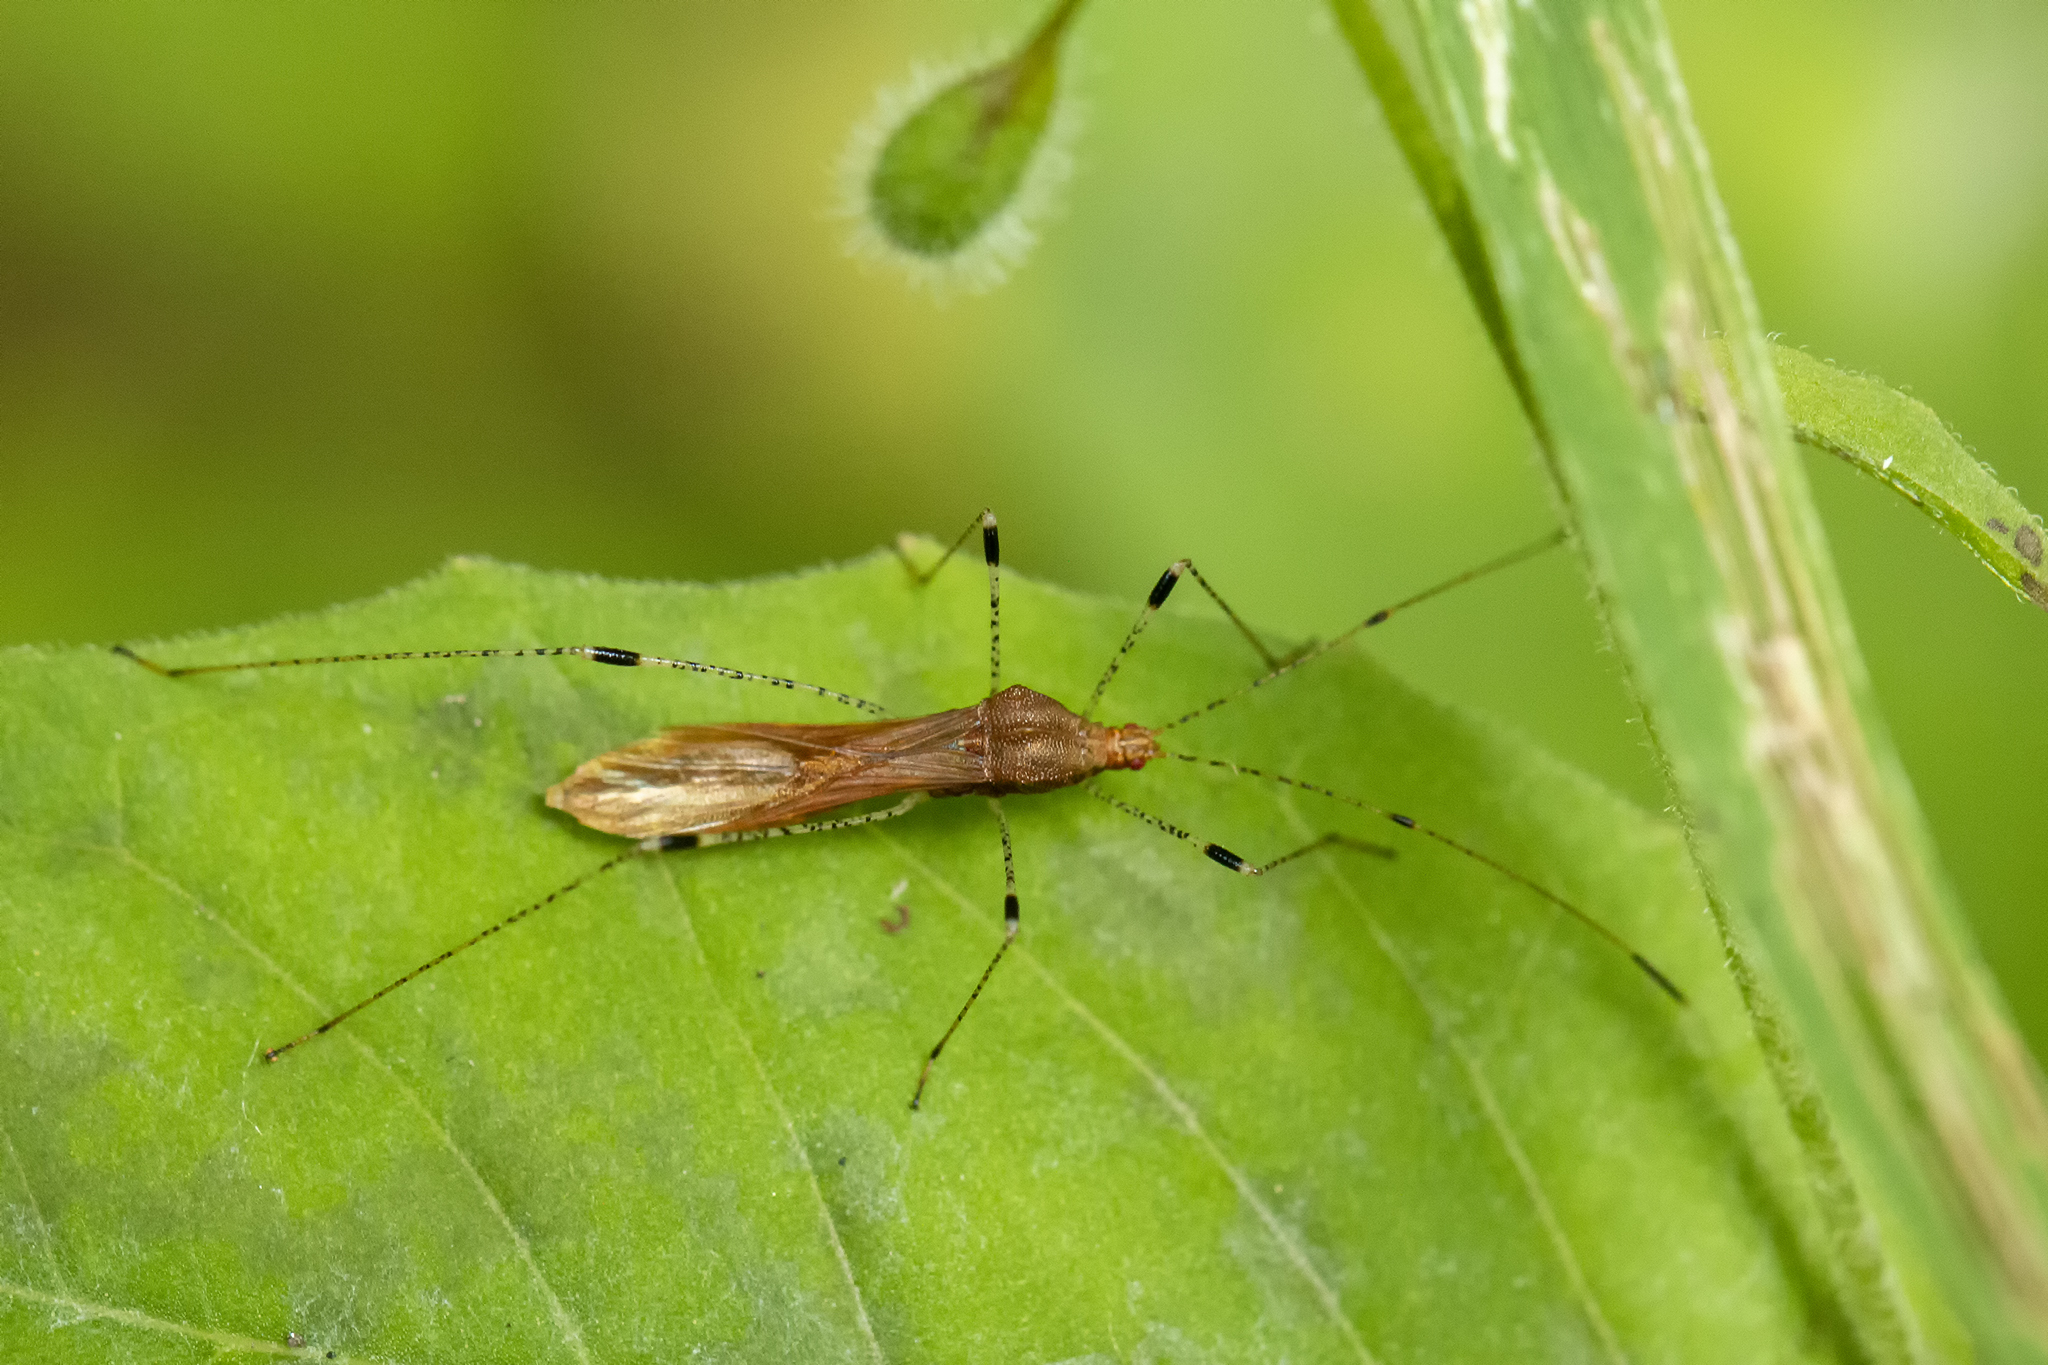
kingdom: Animalia
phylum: Arthropoda
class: Insecta
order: Hemiptera
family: Berytidae
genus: Metatropis
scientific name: Metatropis rufescens
